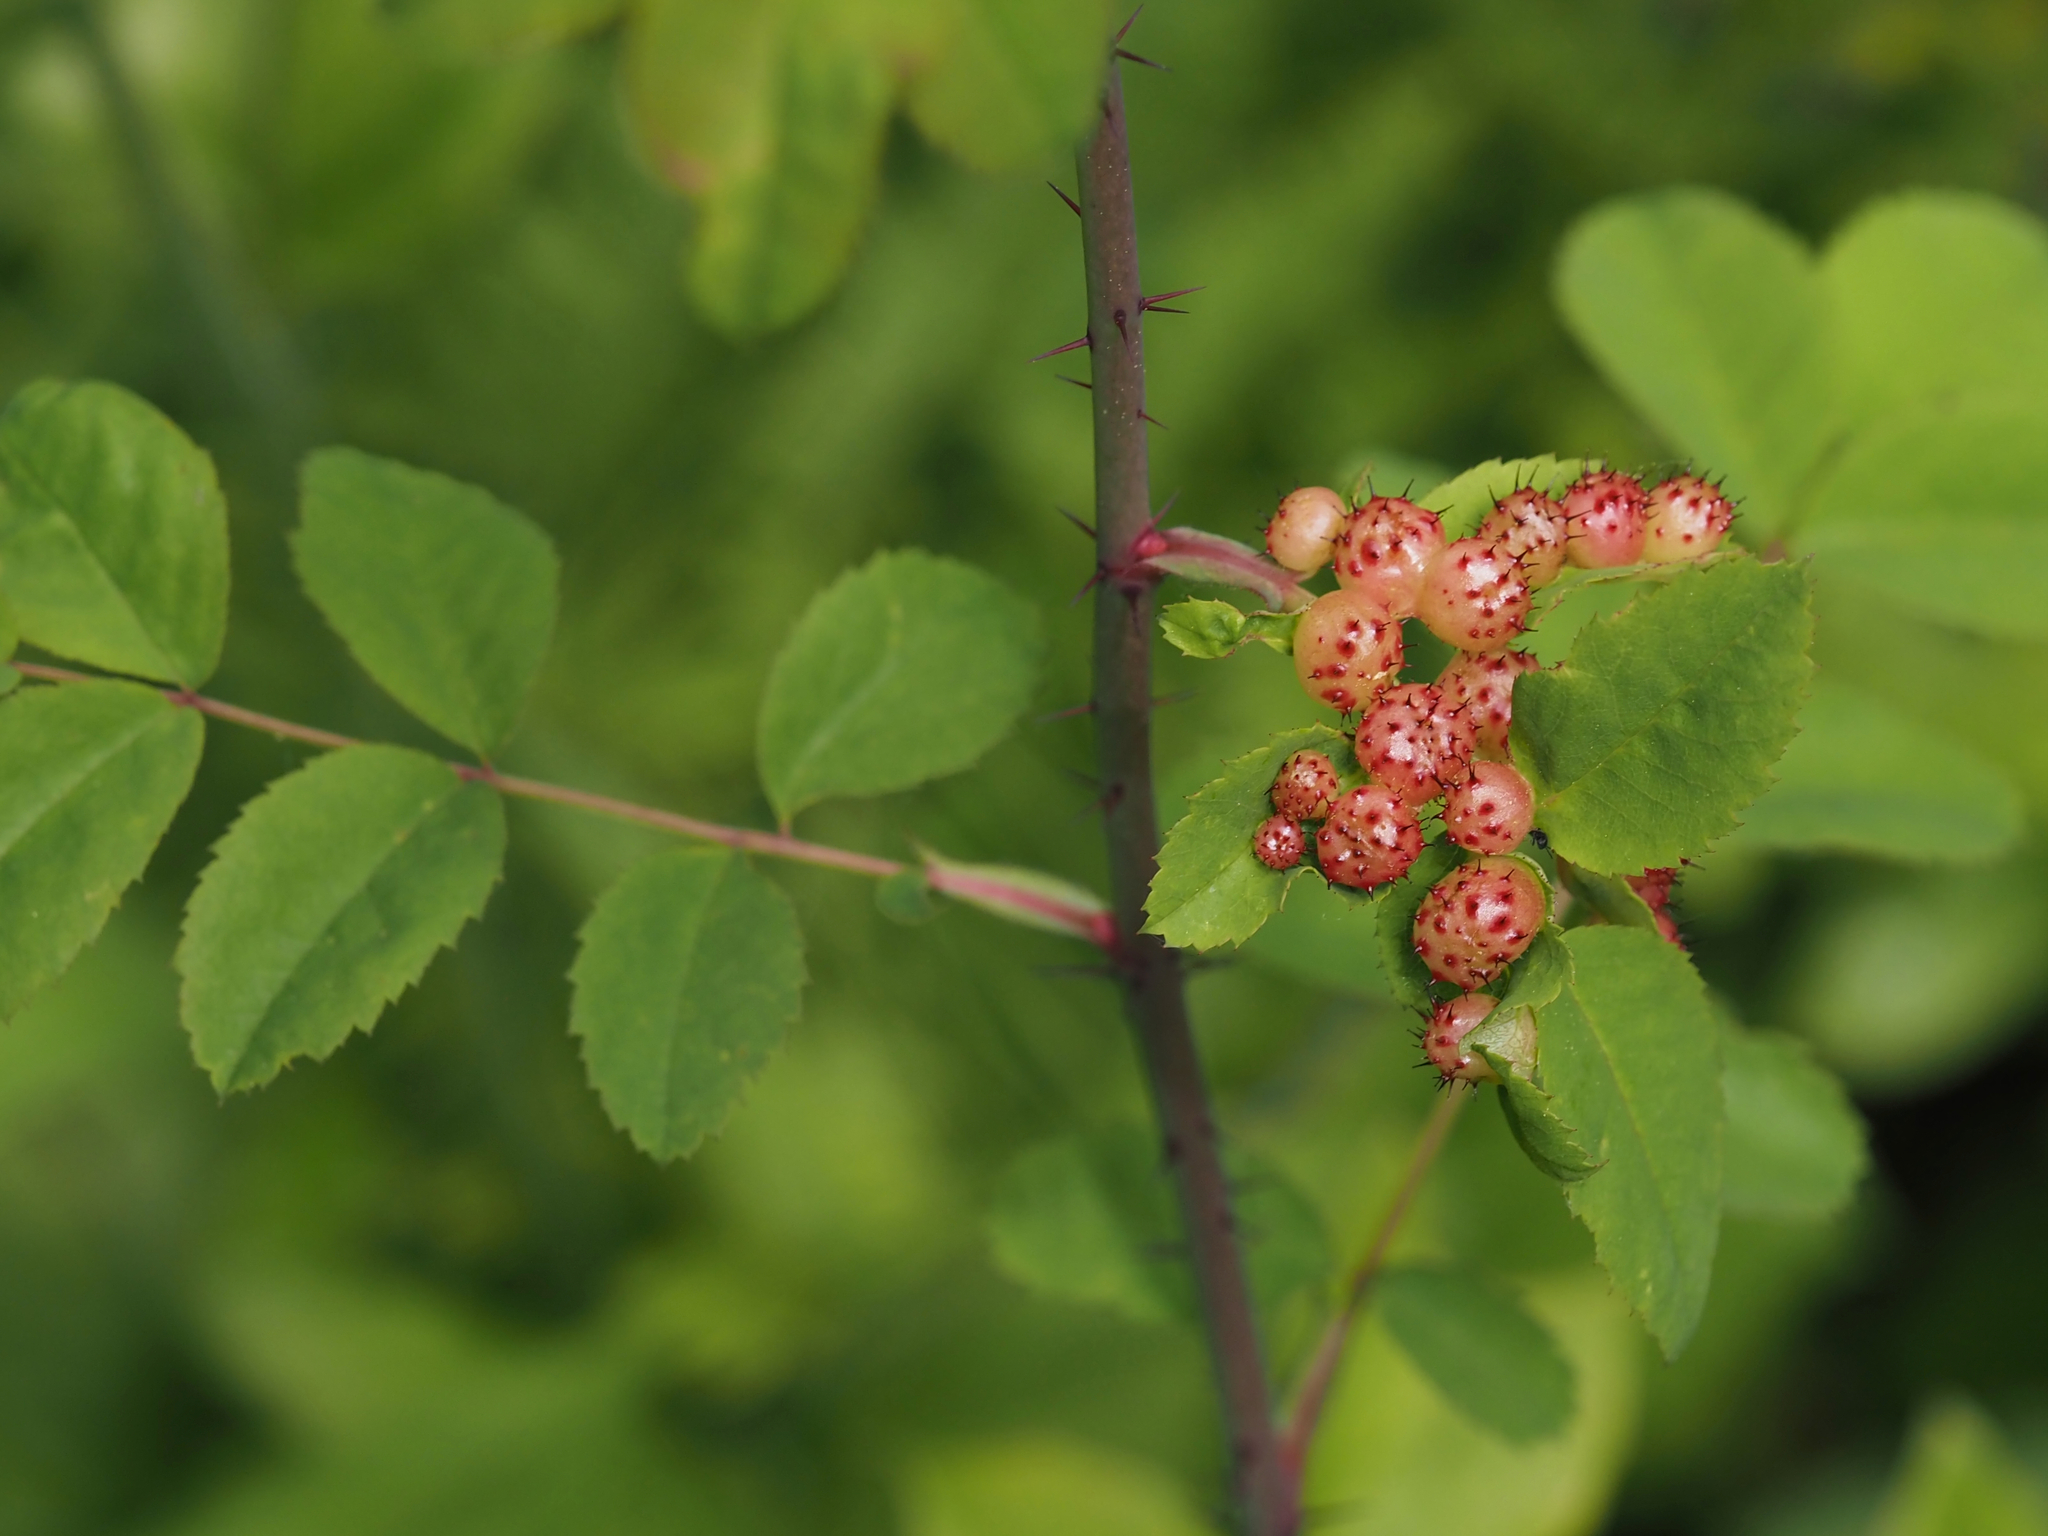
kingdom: Animalia
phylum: Arthropoda
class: Insecta
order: Hymenoptera
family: Cynipidae
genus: Diplolepis
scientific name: Diplolepis polita
